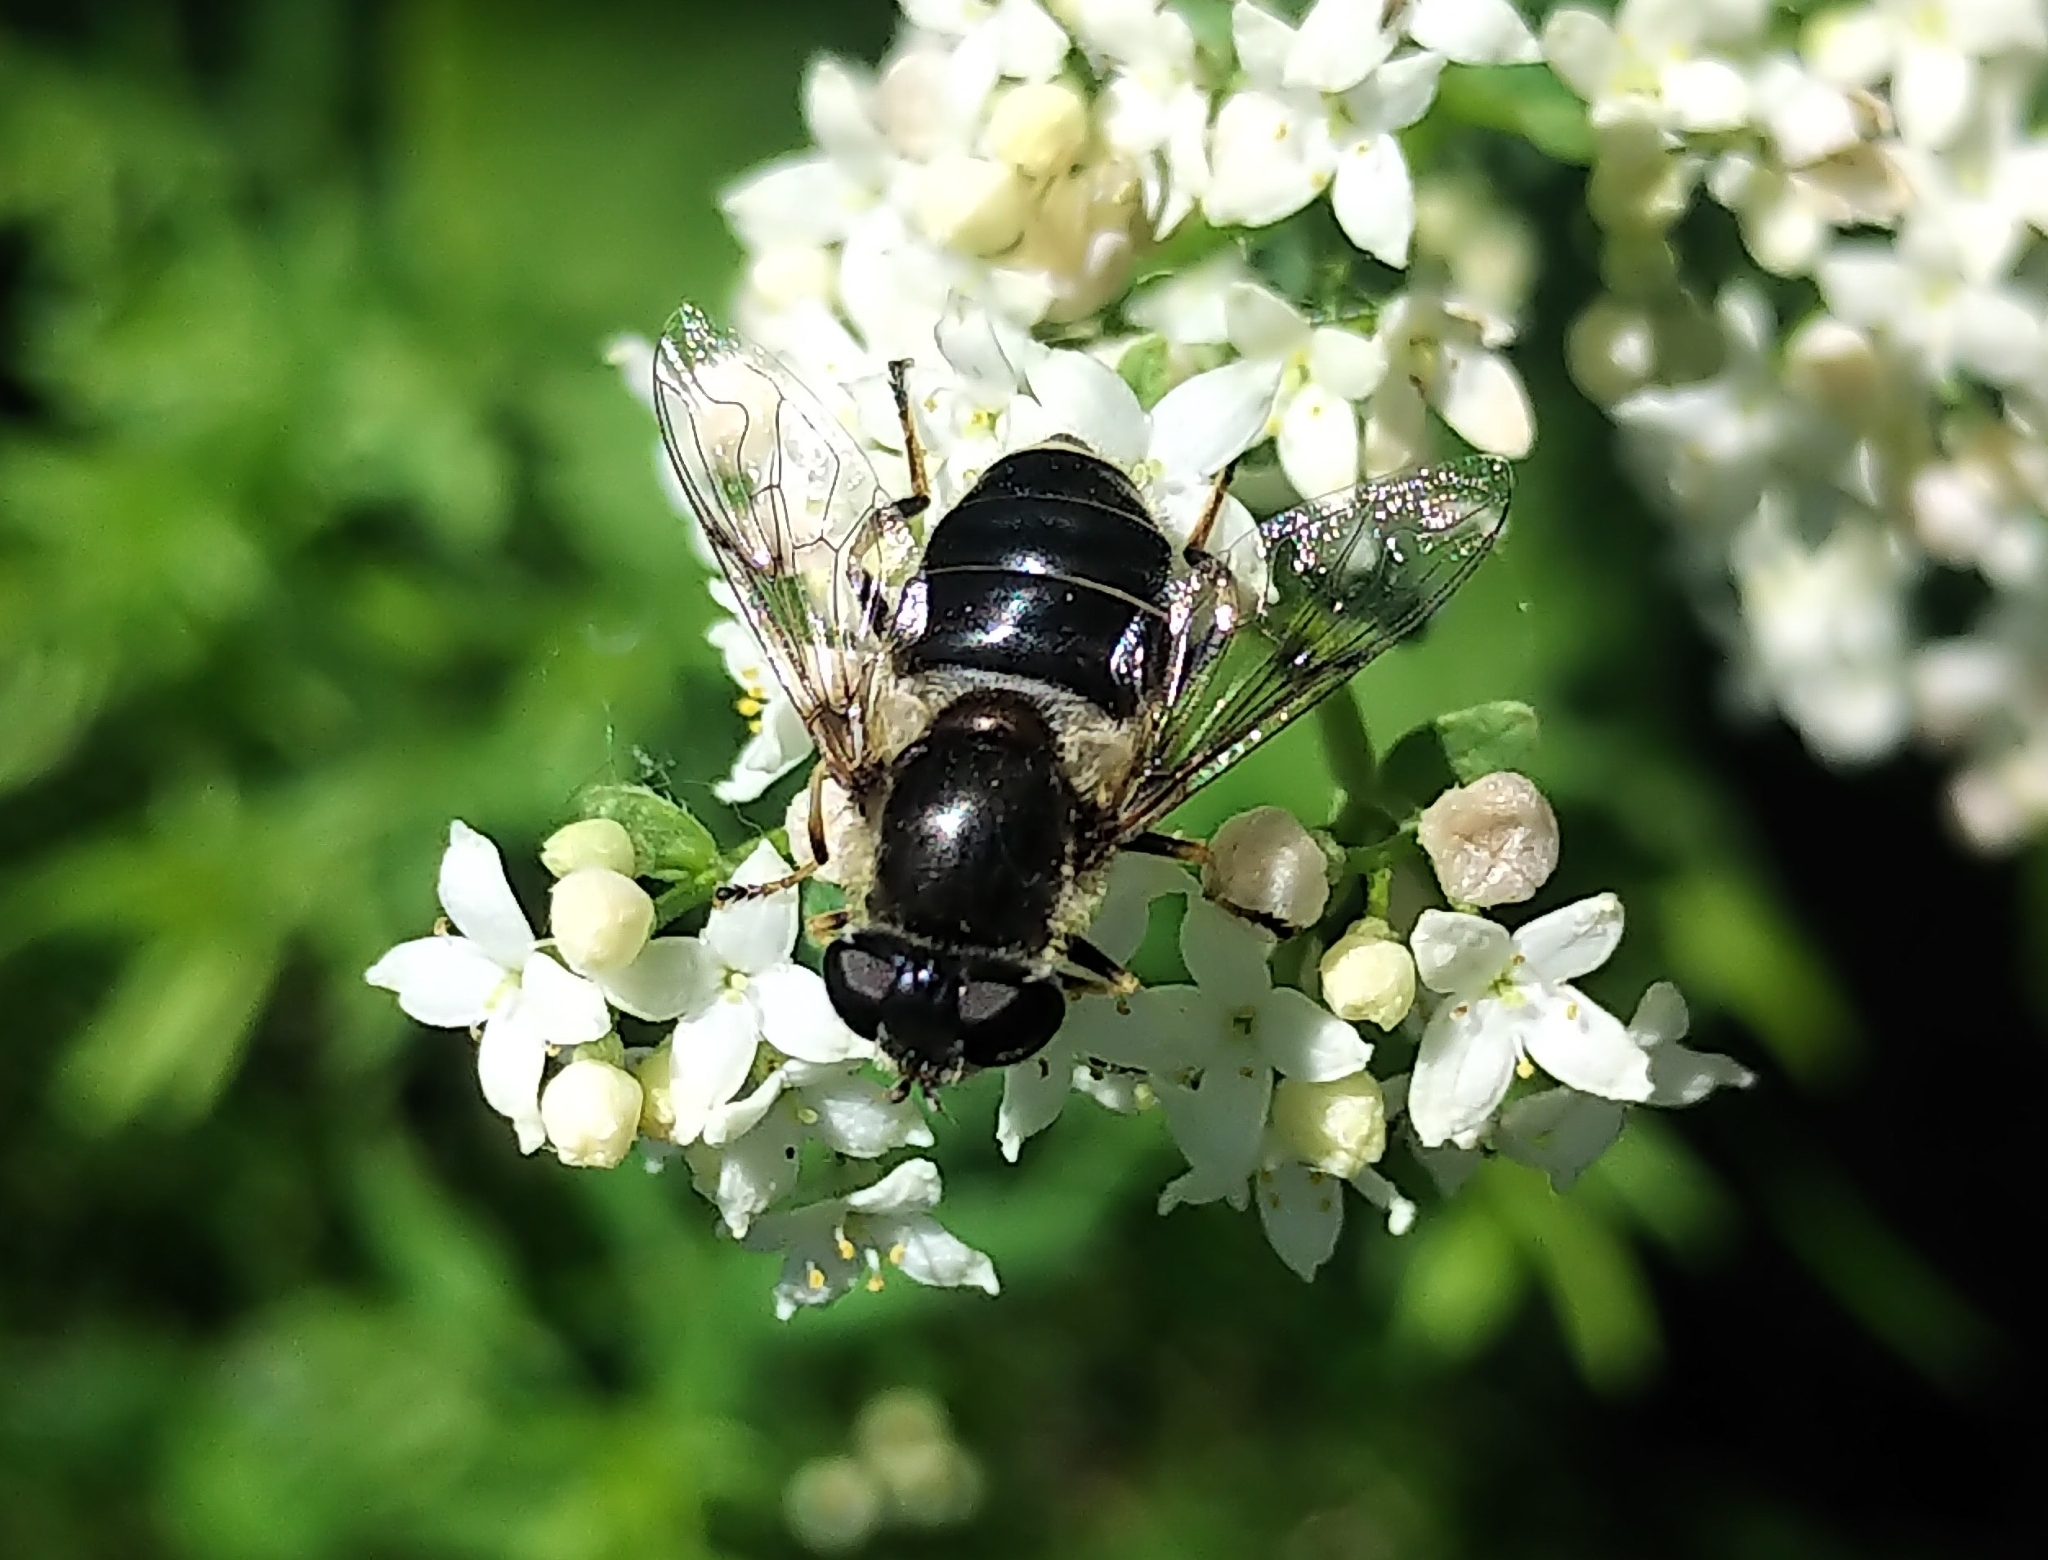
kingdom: Animalia
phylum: Arthropoda
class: Insecta
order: Diptera
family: Syrphidae
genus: Eristalis
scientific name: Eristalis obscura
